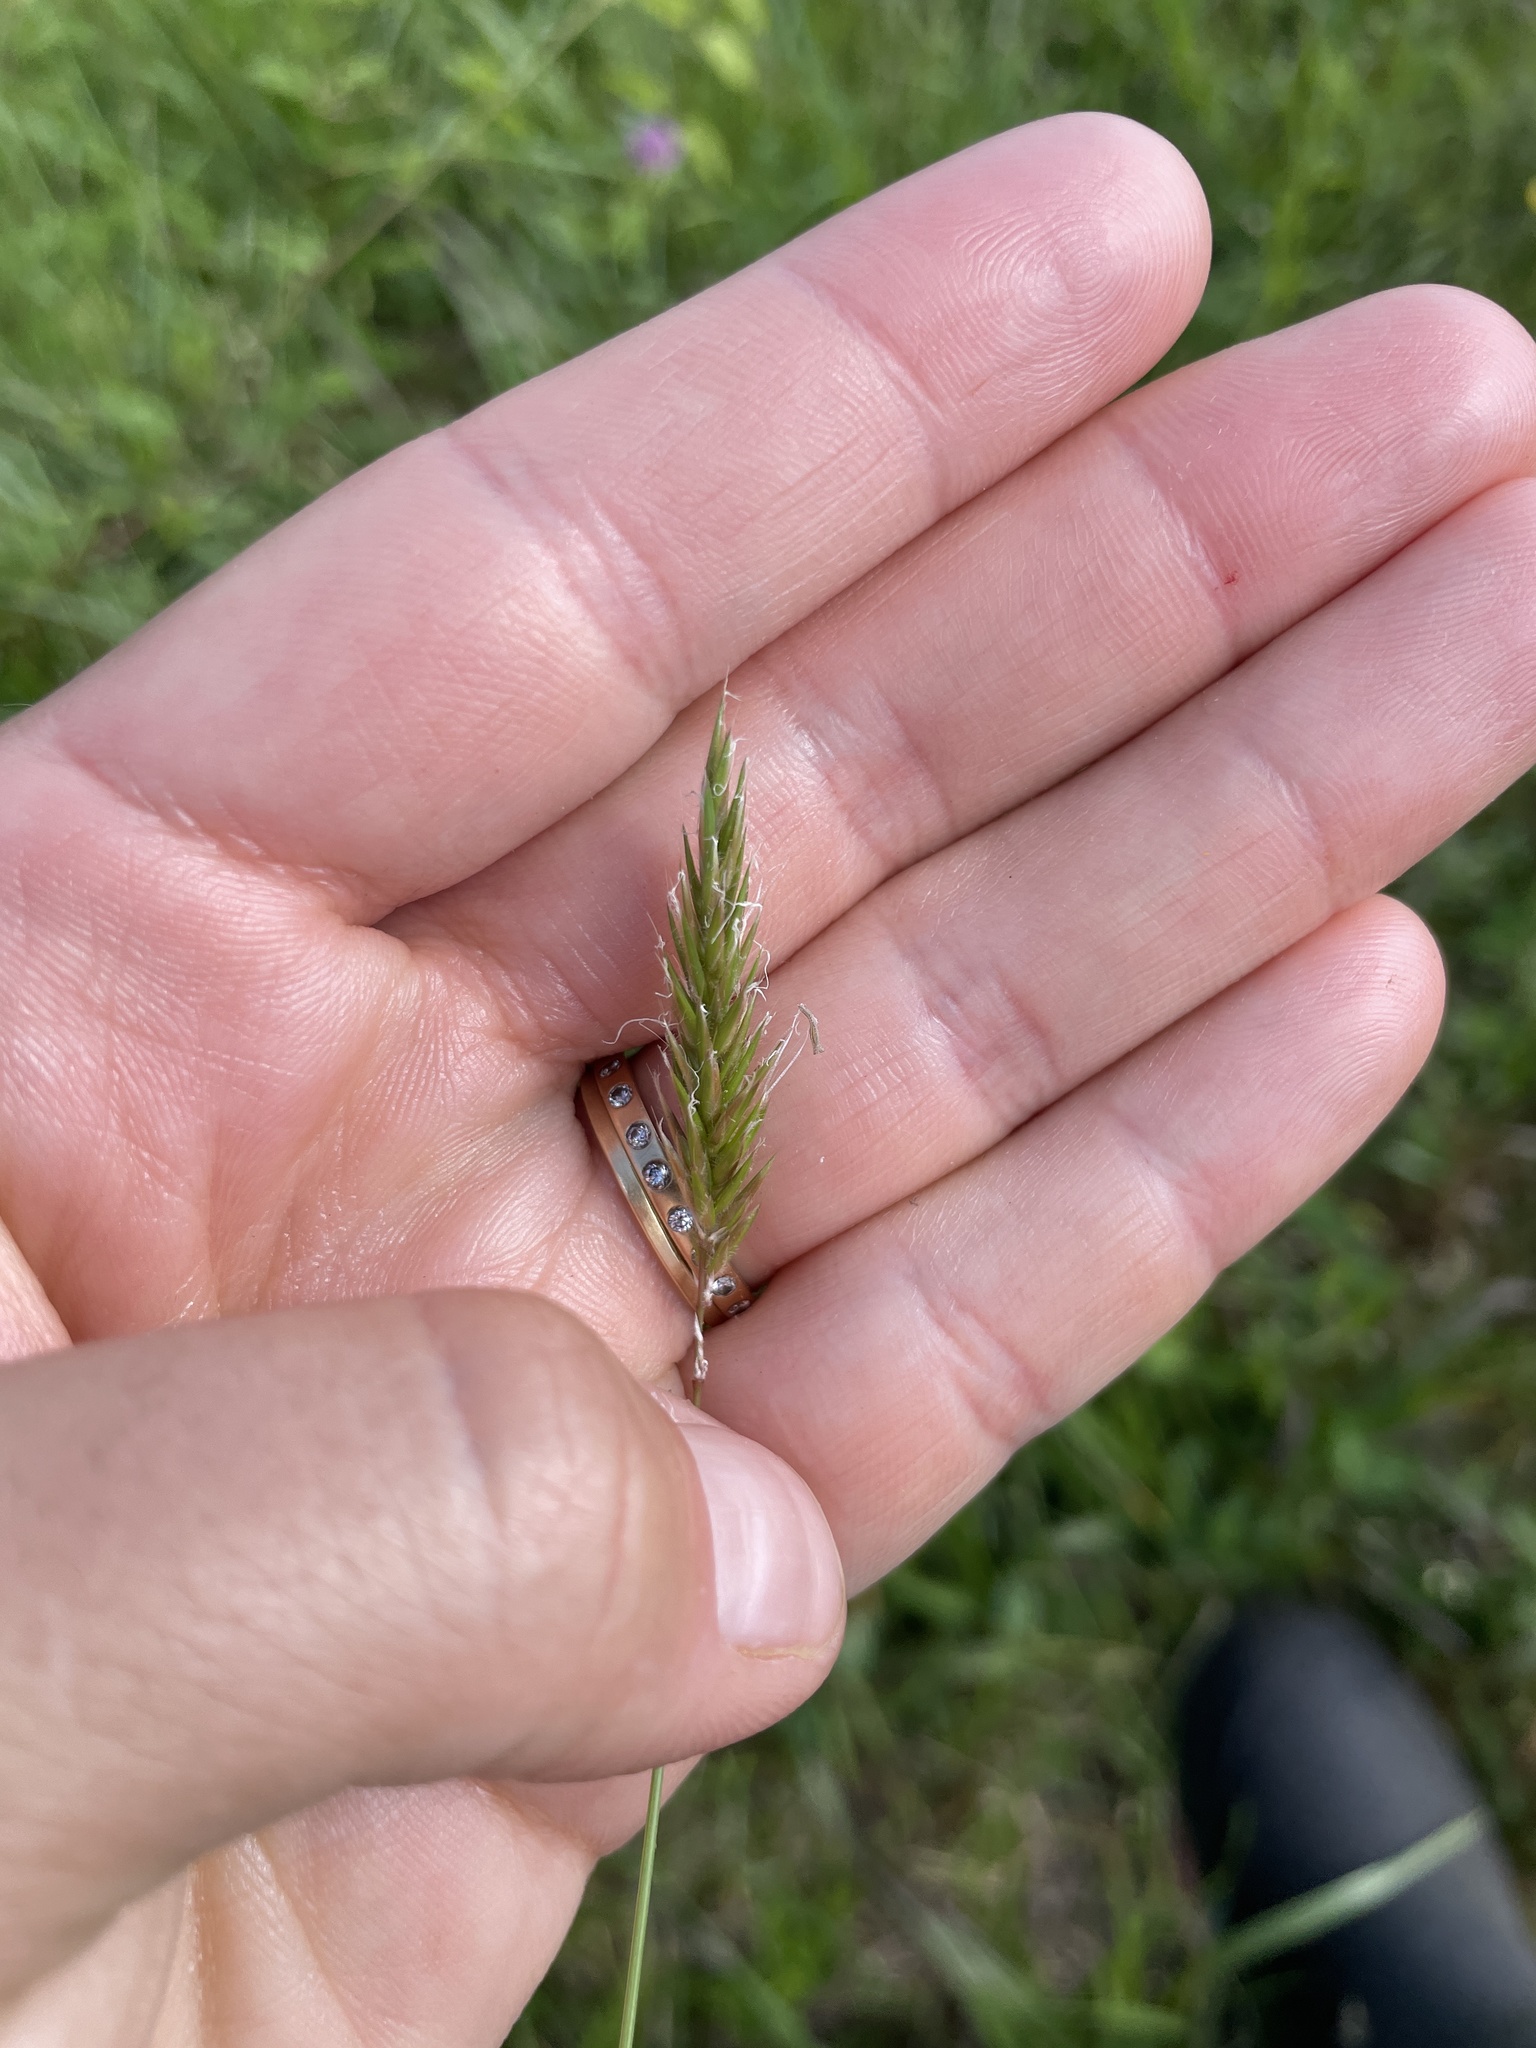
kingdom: Plantae
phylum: Tracheophyta
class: Liliopsida
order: Poales
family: Poaceae
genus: Anthoxanthum
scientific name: Anthoxanthum odoratum
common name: Sweet vernalgrass
